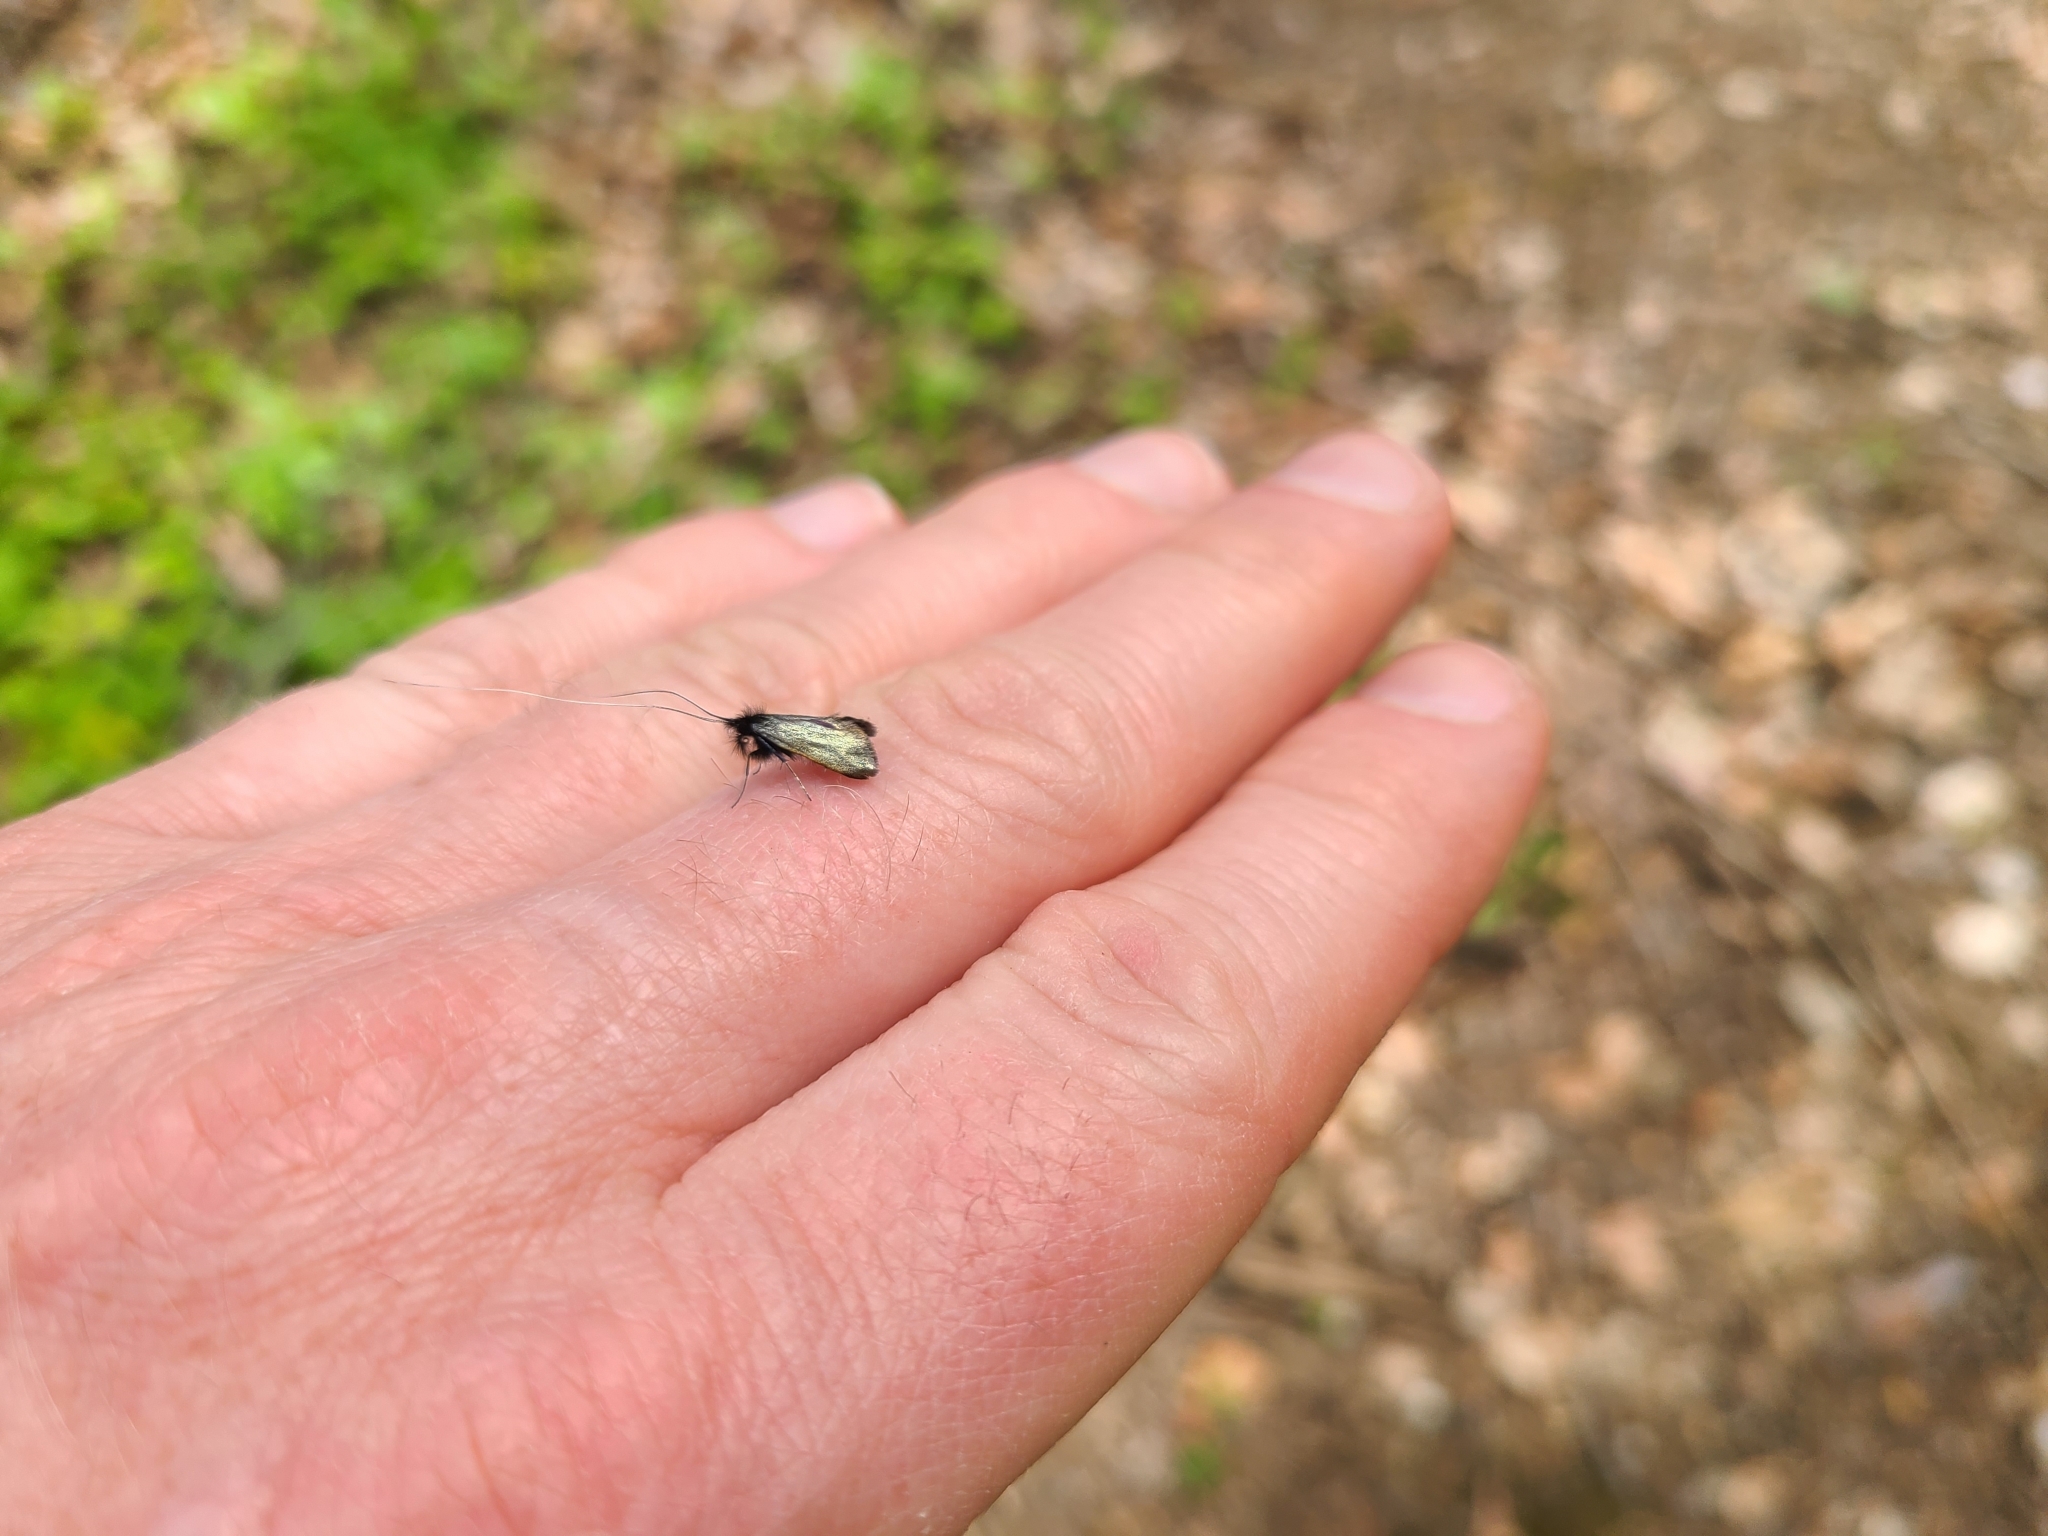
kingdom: Animalia
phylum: Arthropoda
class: Insecta
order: Lepidoptera
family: Adelidae
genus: Adela
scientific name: Adela viridella
